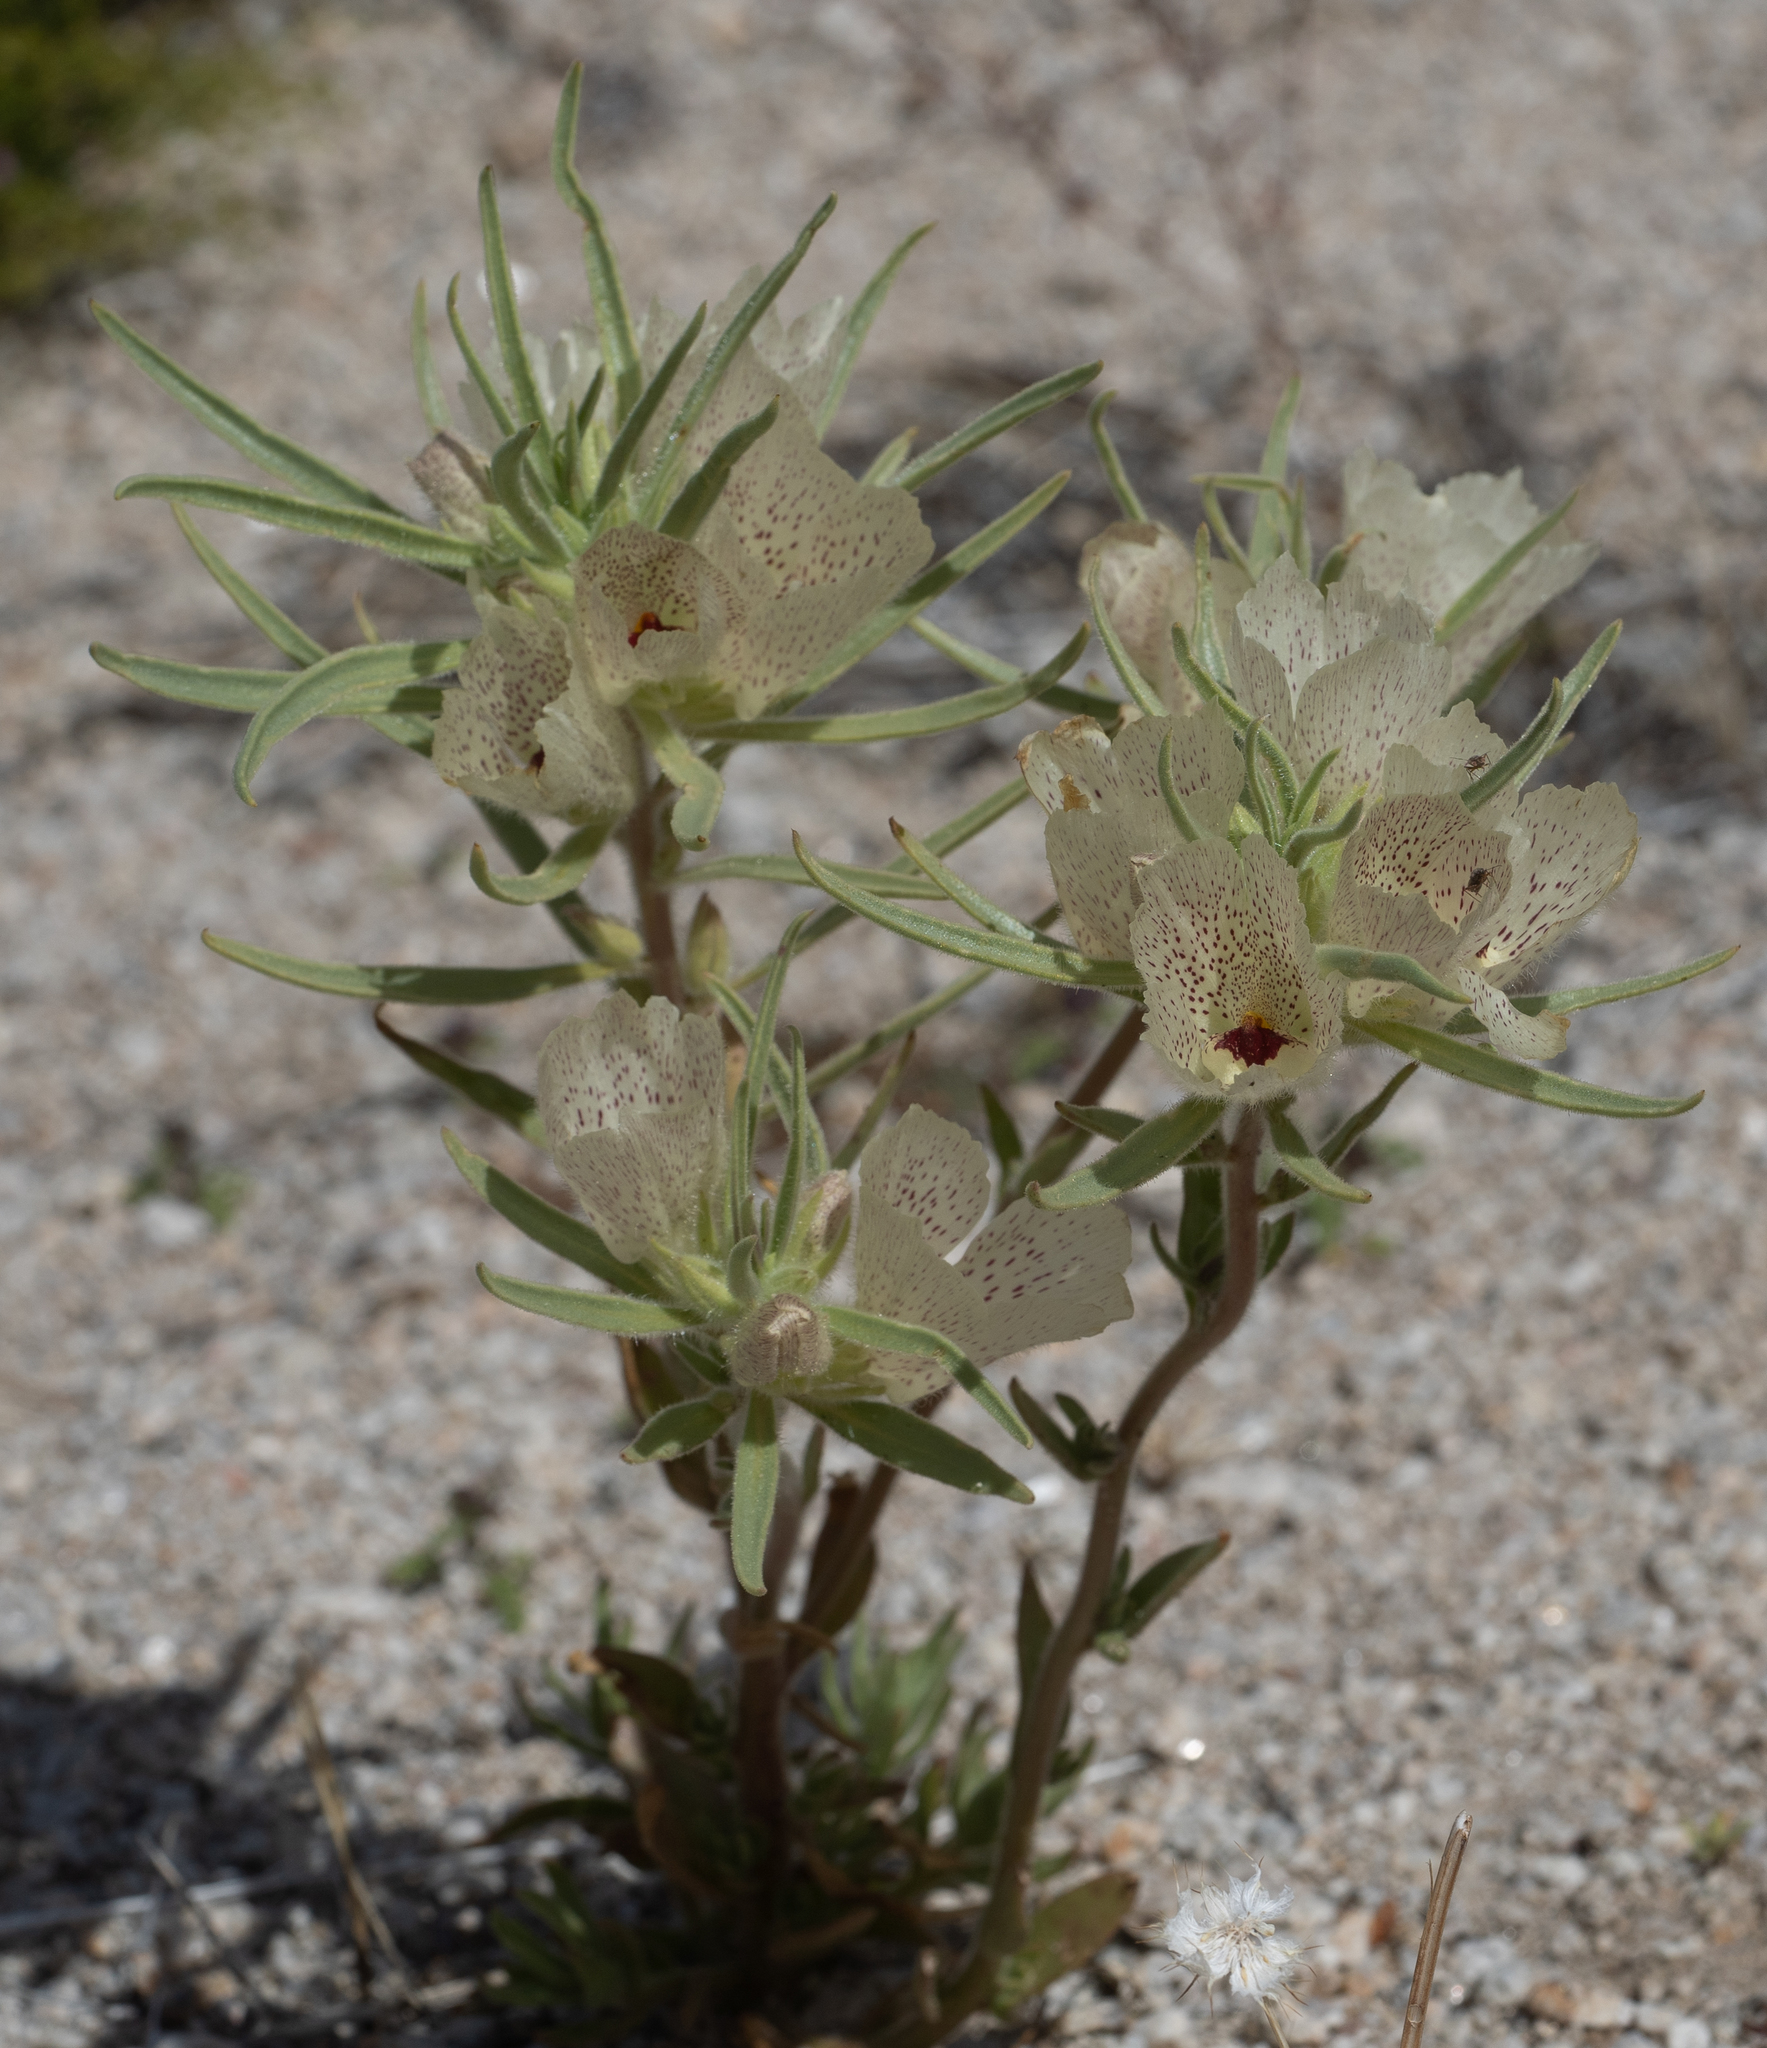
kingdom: Plantae
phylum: Tracheophyta
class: Magnoliopsida
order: Lamiales
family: Plantaginaceae
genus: Mohavea
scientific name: Mohavea confertiflora
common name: Ghost flower
